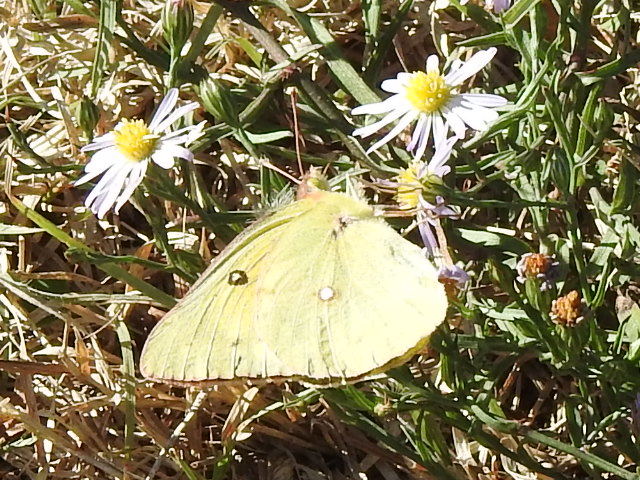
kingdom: Animalia
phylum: Arthropoda
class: Insecta
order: Lepidoptera
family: Pieridae
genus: Colias
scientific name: Colias eurytheme
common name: Alfalfa butterfly
